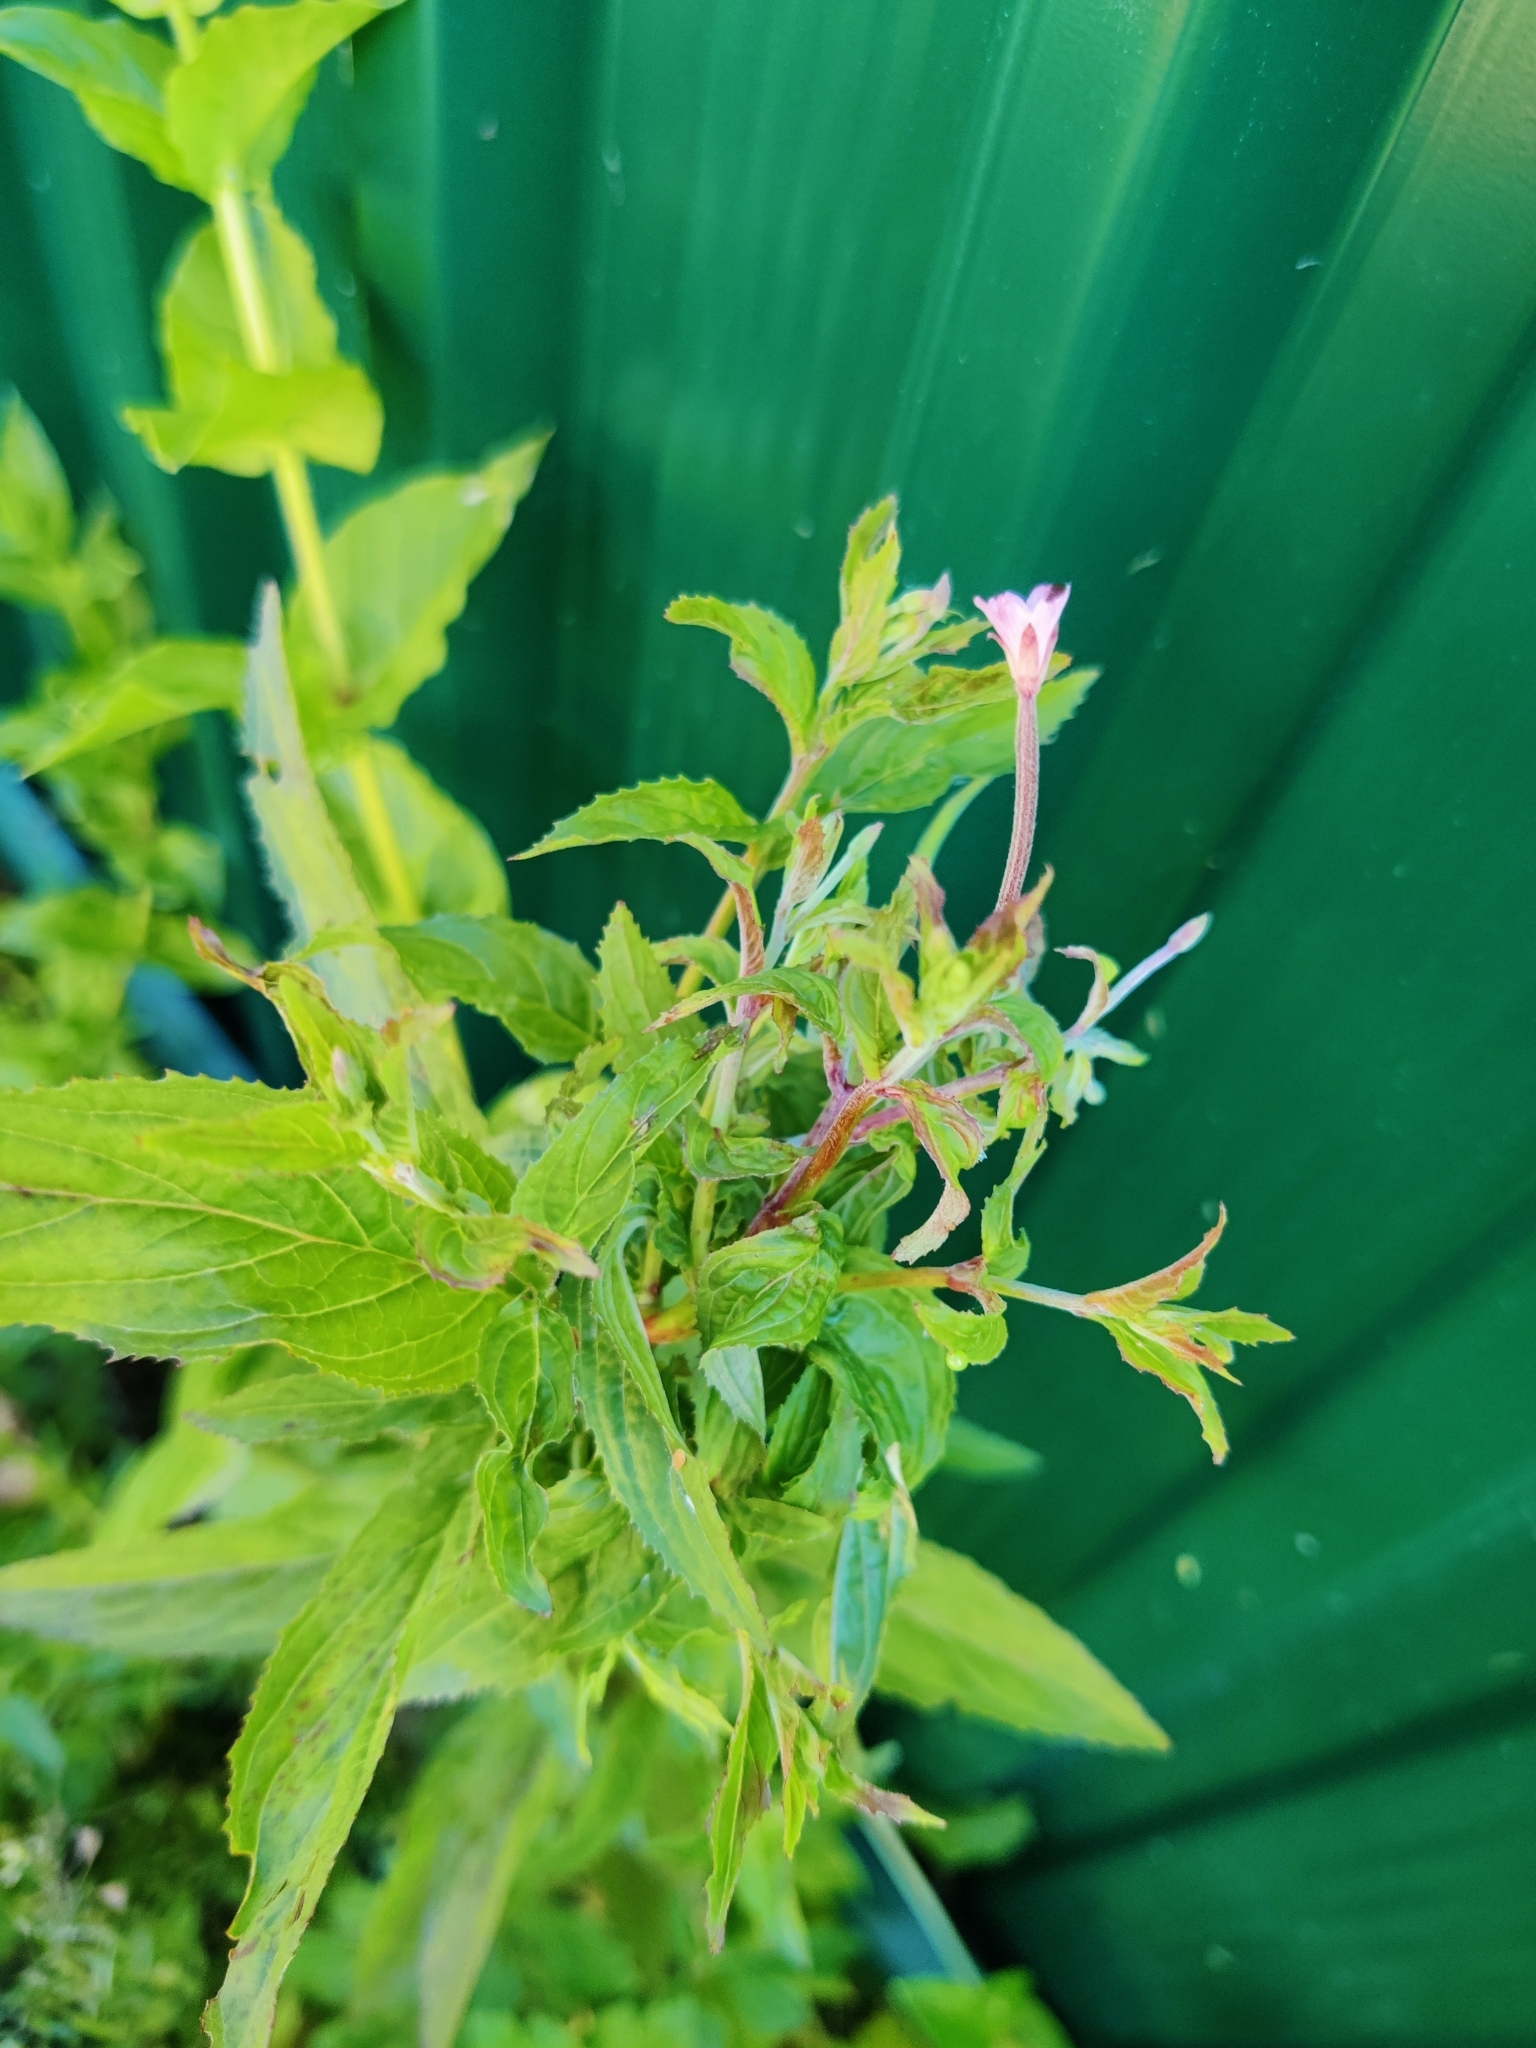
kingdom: Plantae
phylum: Tracheophyta
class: Magnoliopsida
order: Myrtales
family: Onagraceae
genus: Epilobium
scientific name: Epilobium montanum
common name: Broad-leaved willowherb
